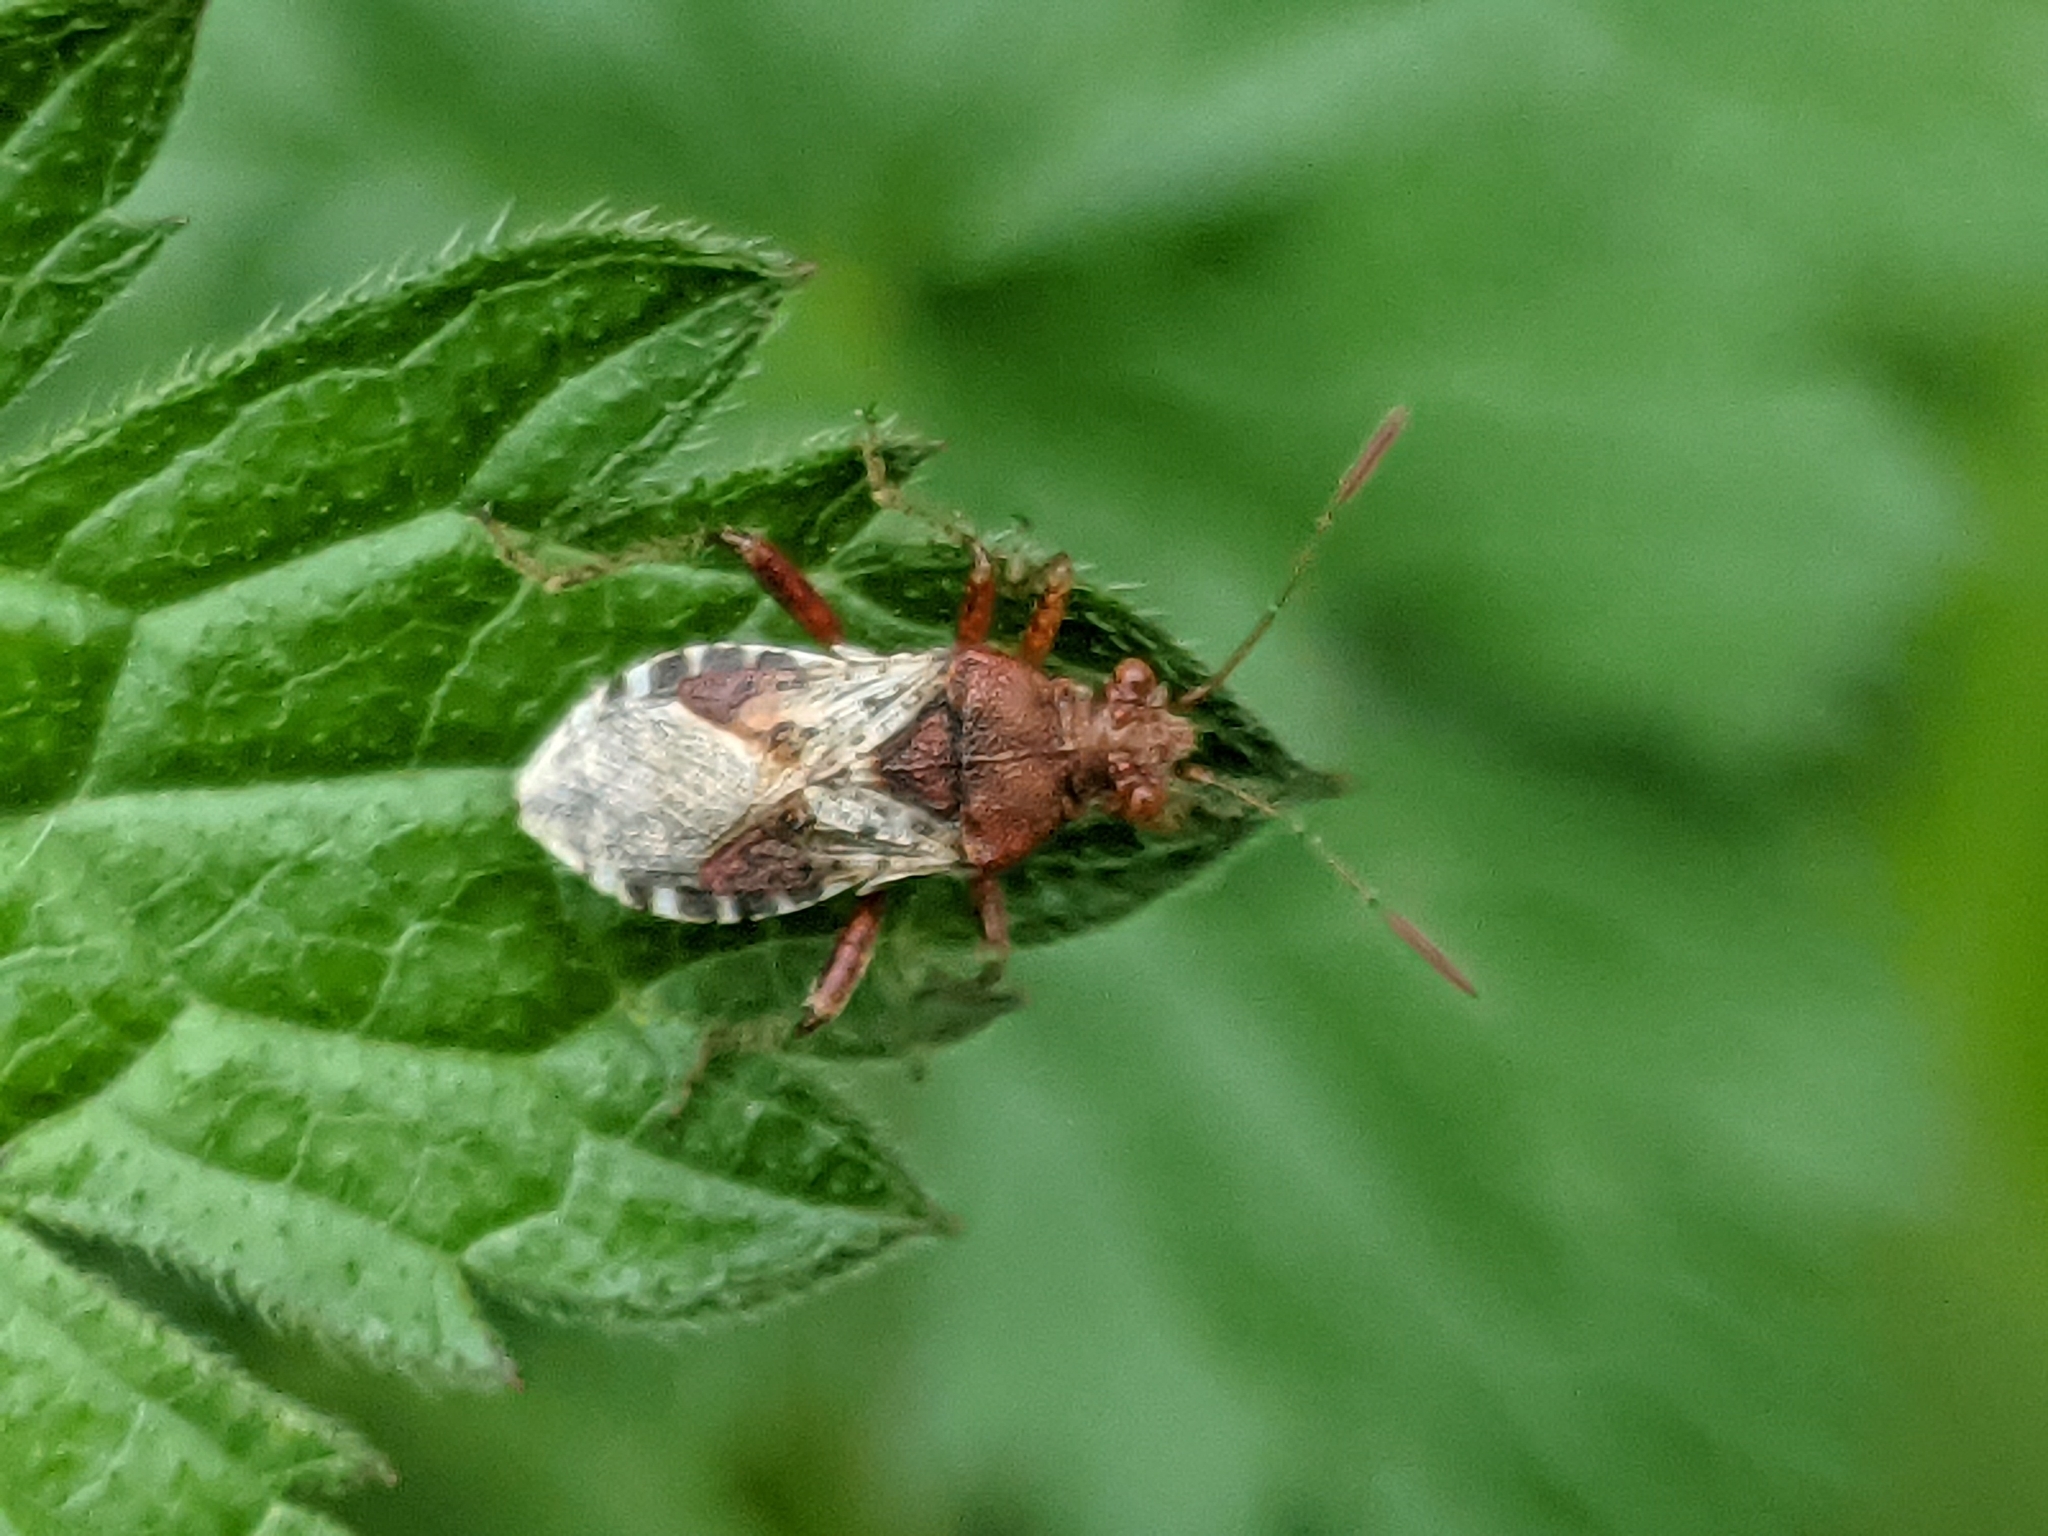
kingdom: Animalia
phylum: Arthropoda
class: Insecta
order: Hemiptera
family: Rhopalidae
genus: Rhopalus
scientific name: Rhopalus subrufus
